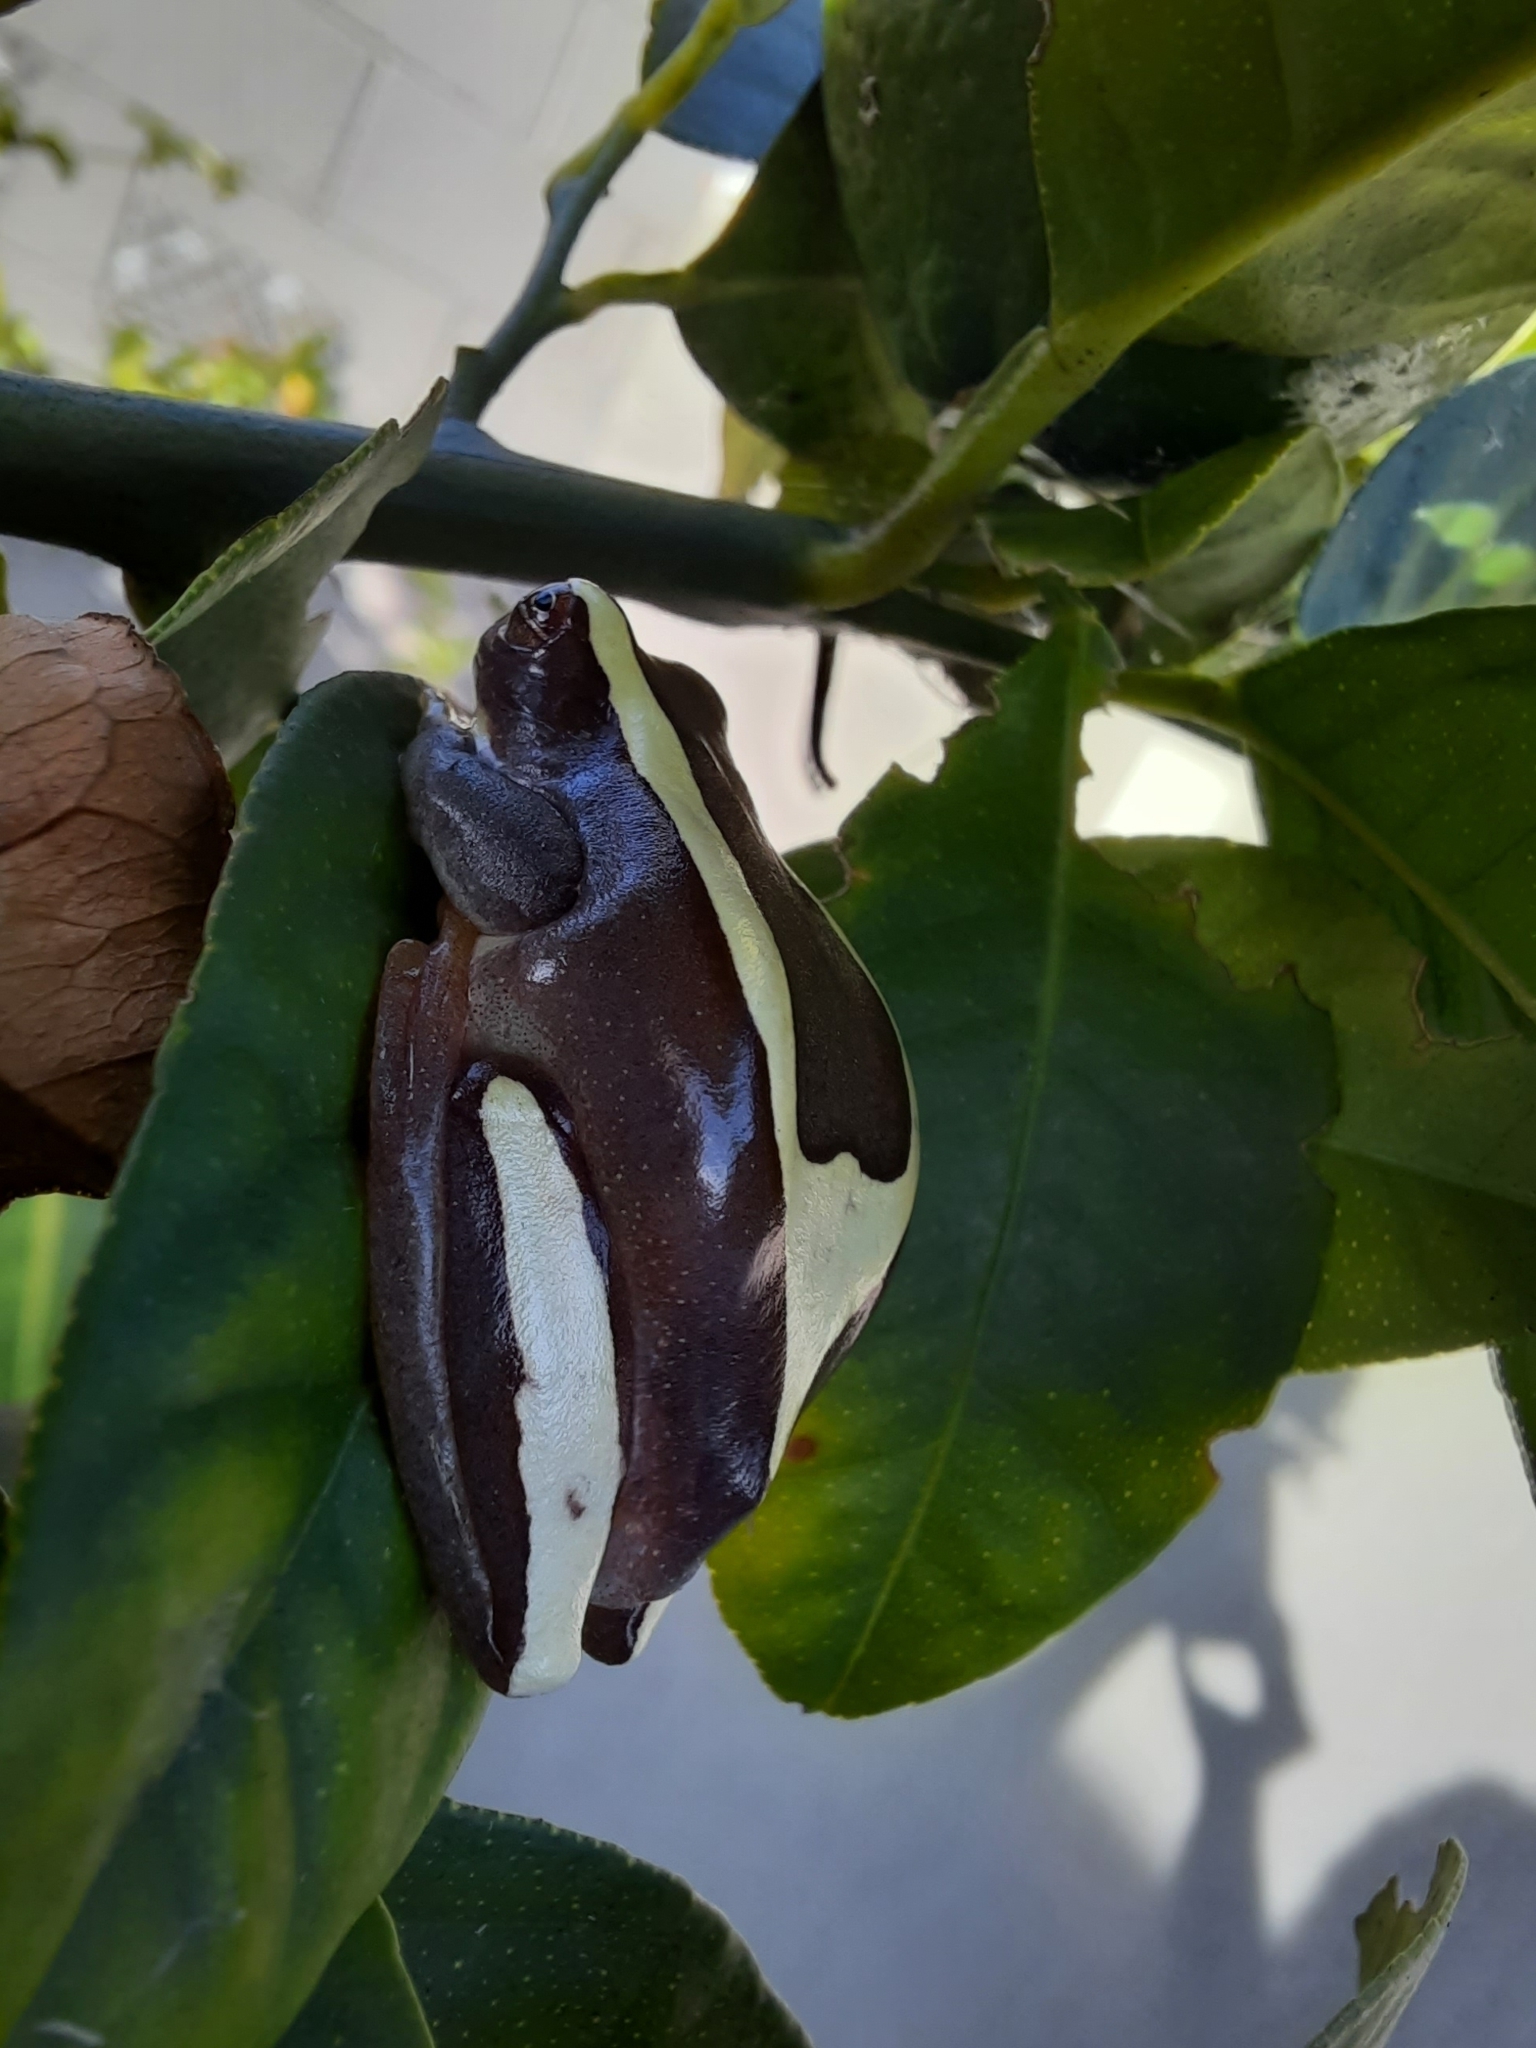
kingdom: Animalia
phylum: Chordata
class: Amphibia
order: Anura
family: Hylidae
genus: Dendropsophus
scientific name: Dendropsophus elegans
